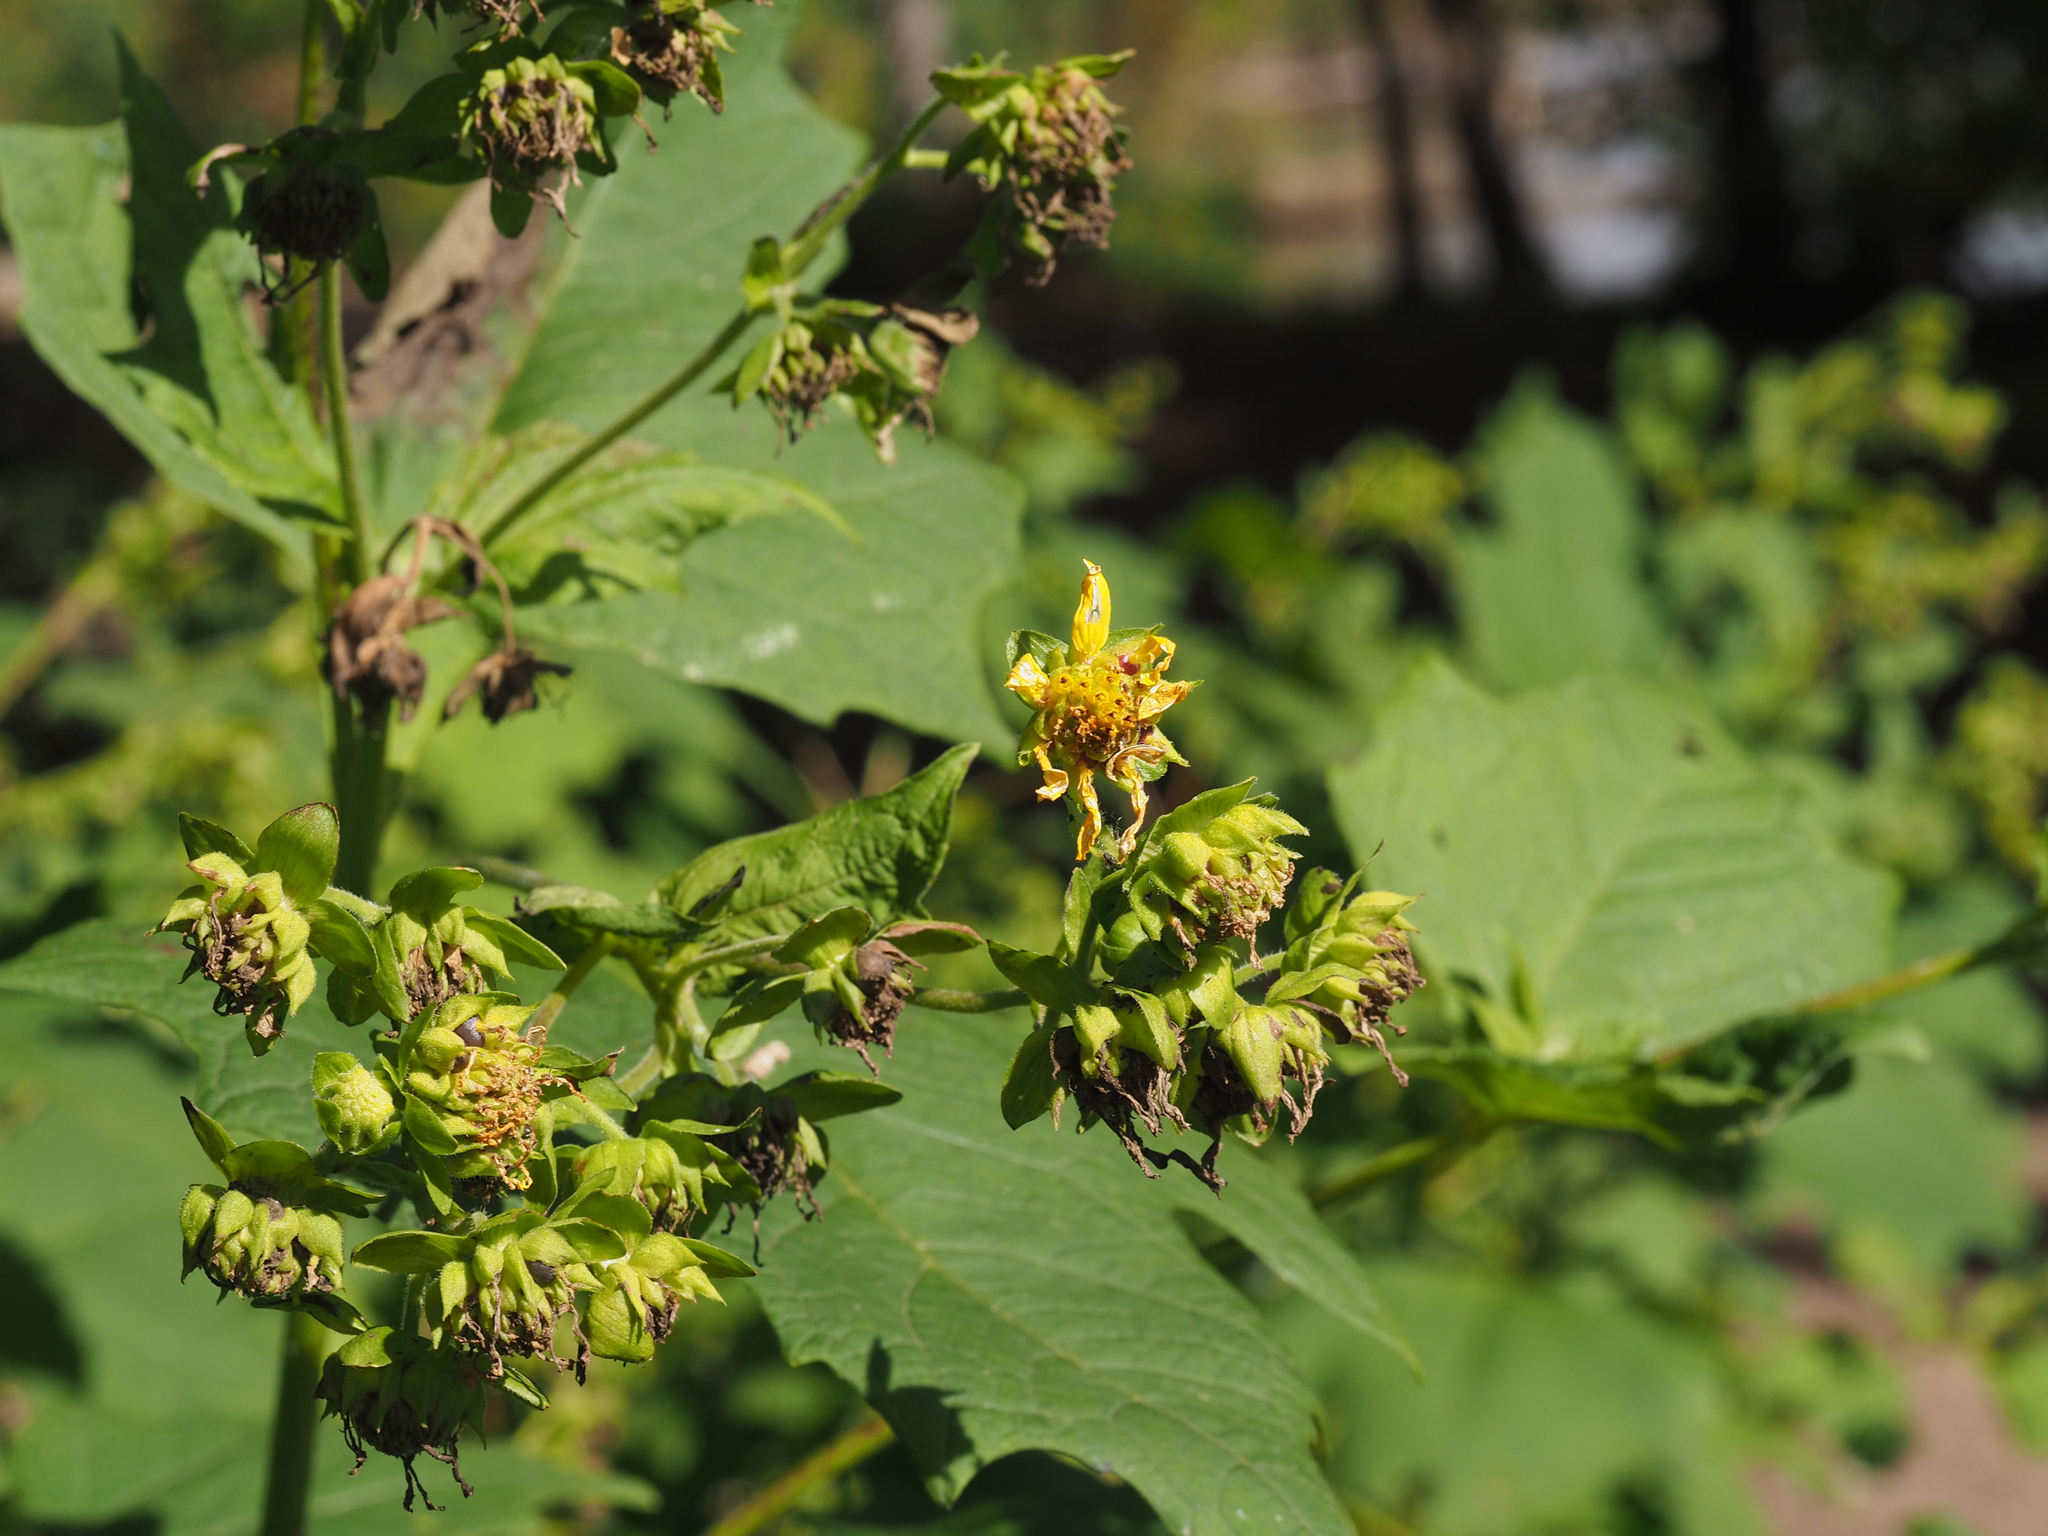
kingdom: Plantae
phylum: Tracheophyta
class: Magnoliopsida
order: Asterales
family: Asteraceae
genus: Smallanthus
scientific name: Smallanthus uvedalia
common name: Bear's-foot
